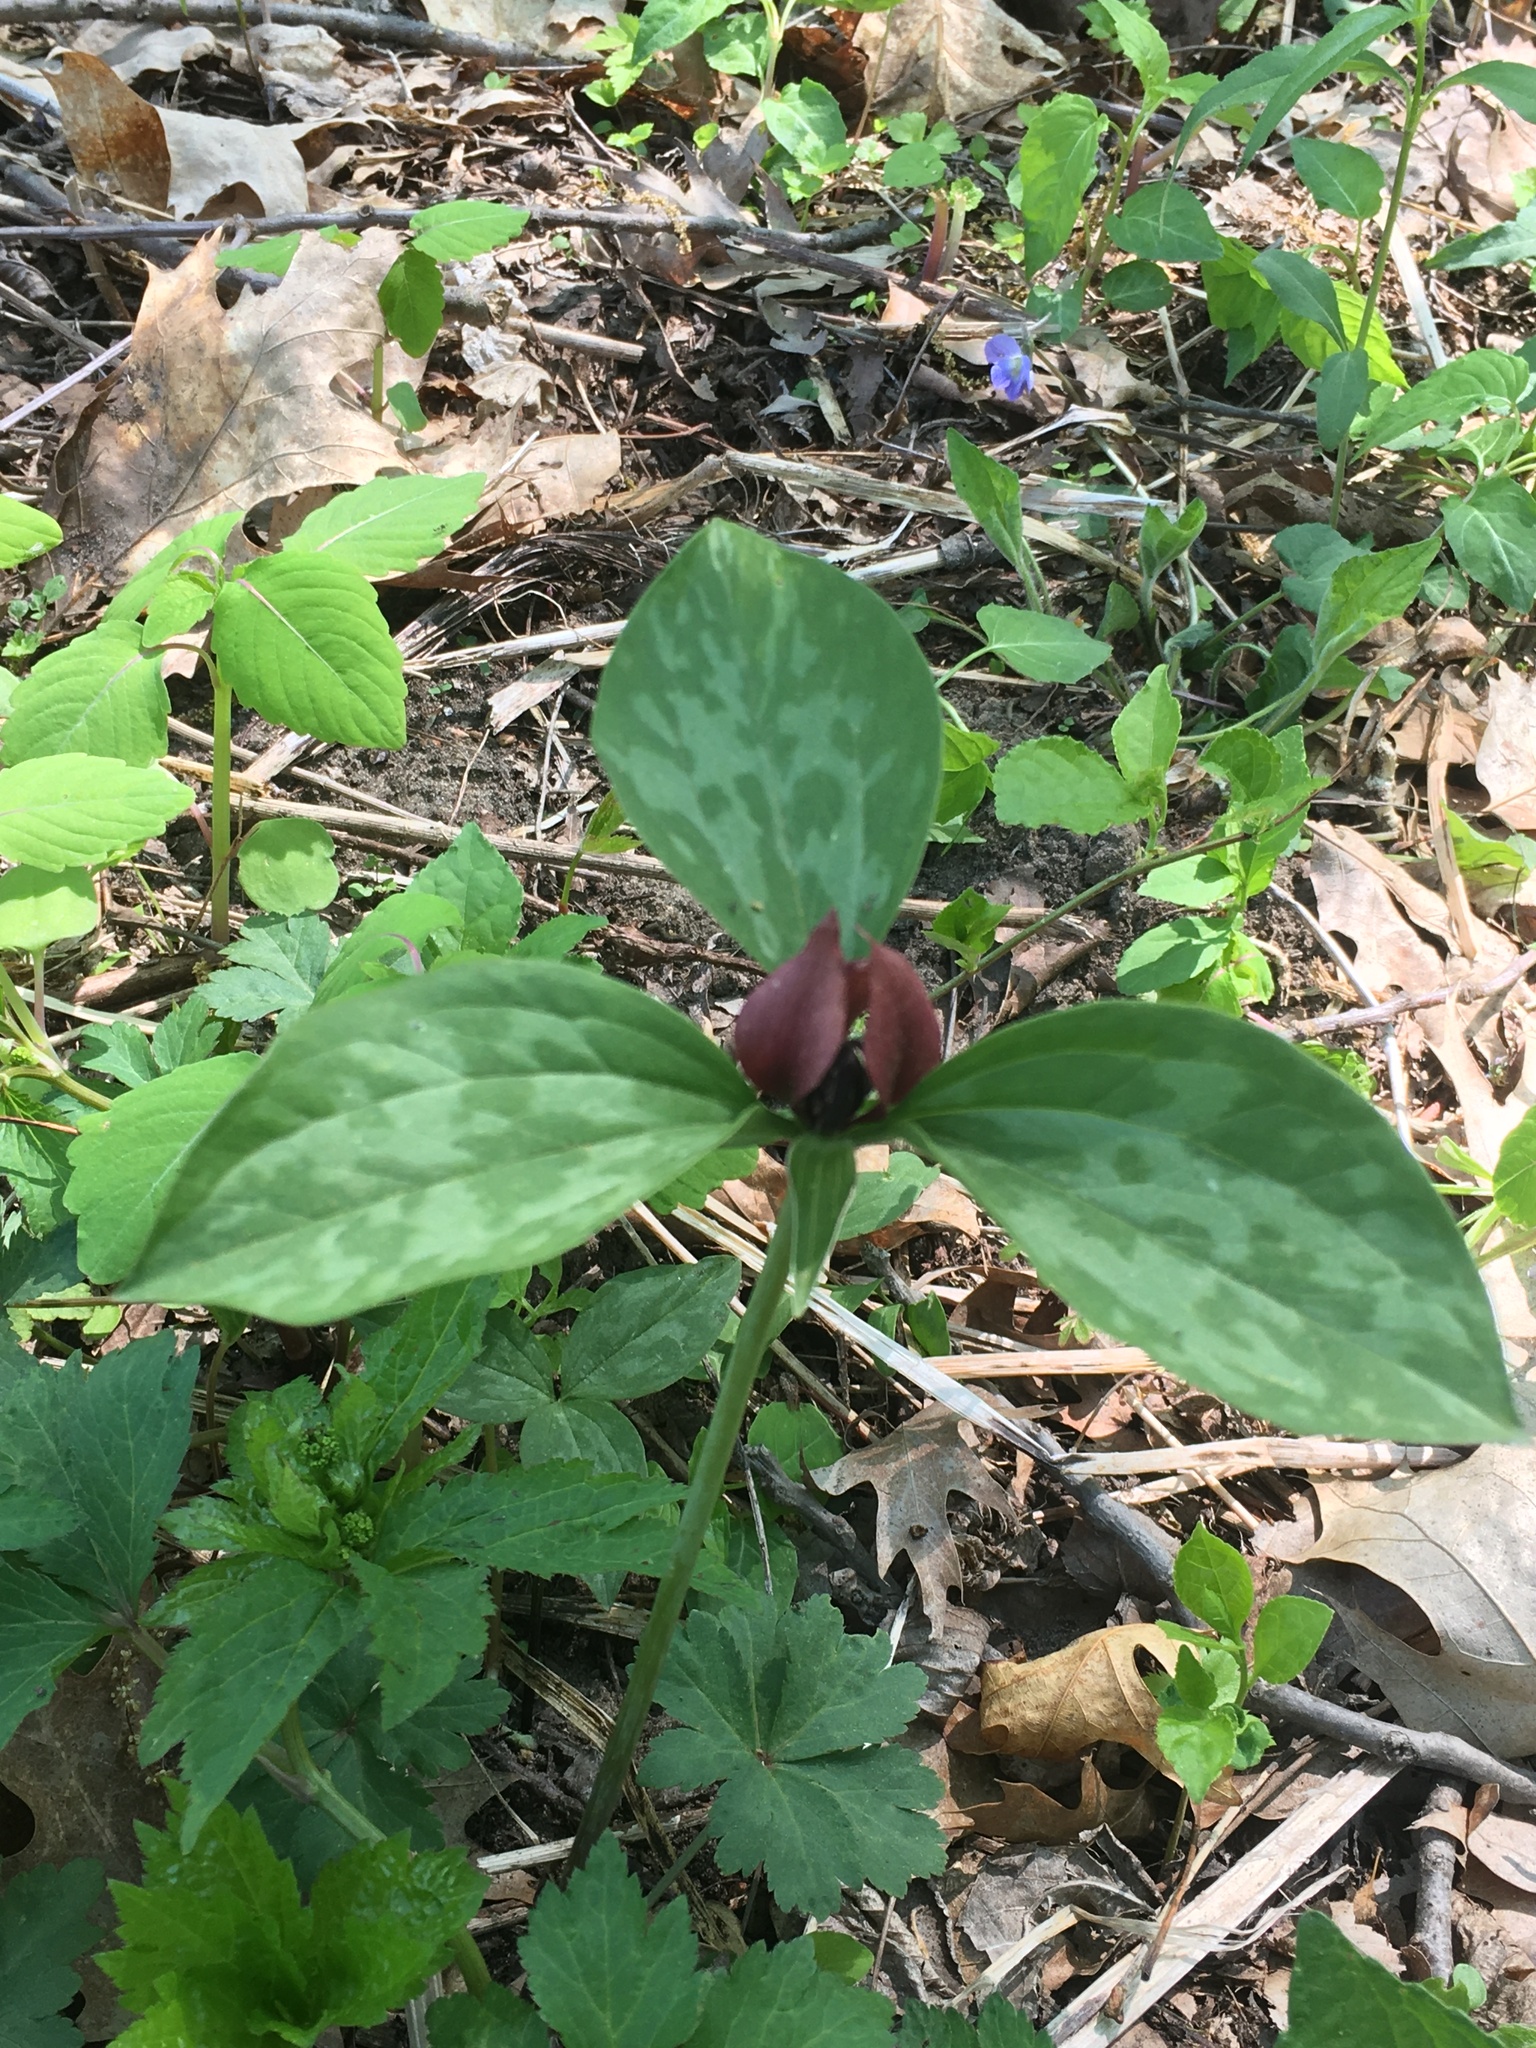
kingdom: Plantae
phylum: Tracheophyta
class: Liliopsida
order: Liliales
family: Melanthiaceae
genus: Trillium
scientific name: Trillium recurvatum
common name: Bloody butcher
